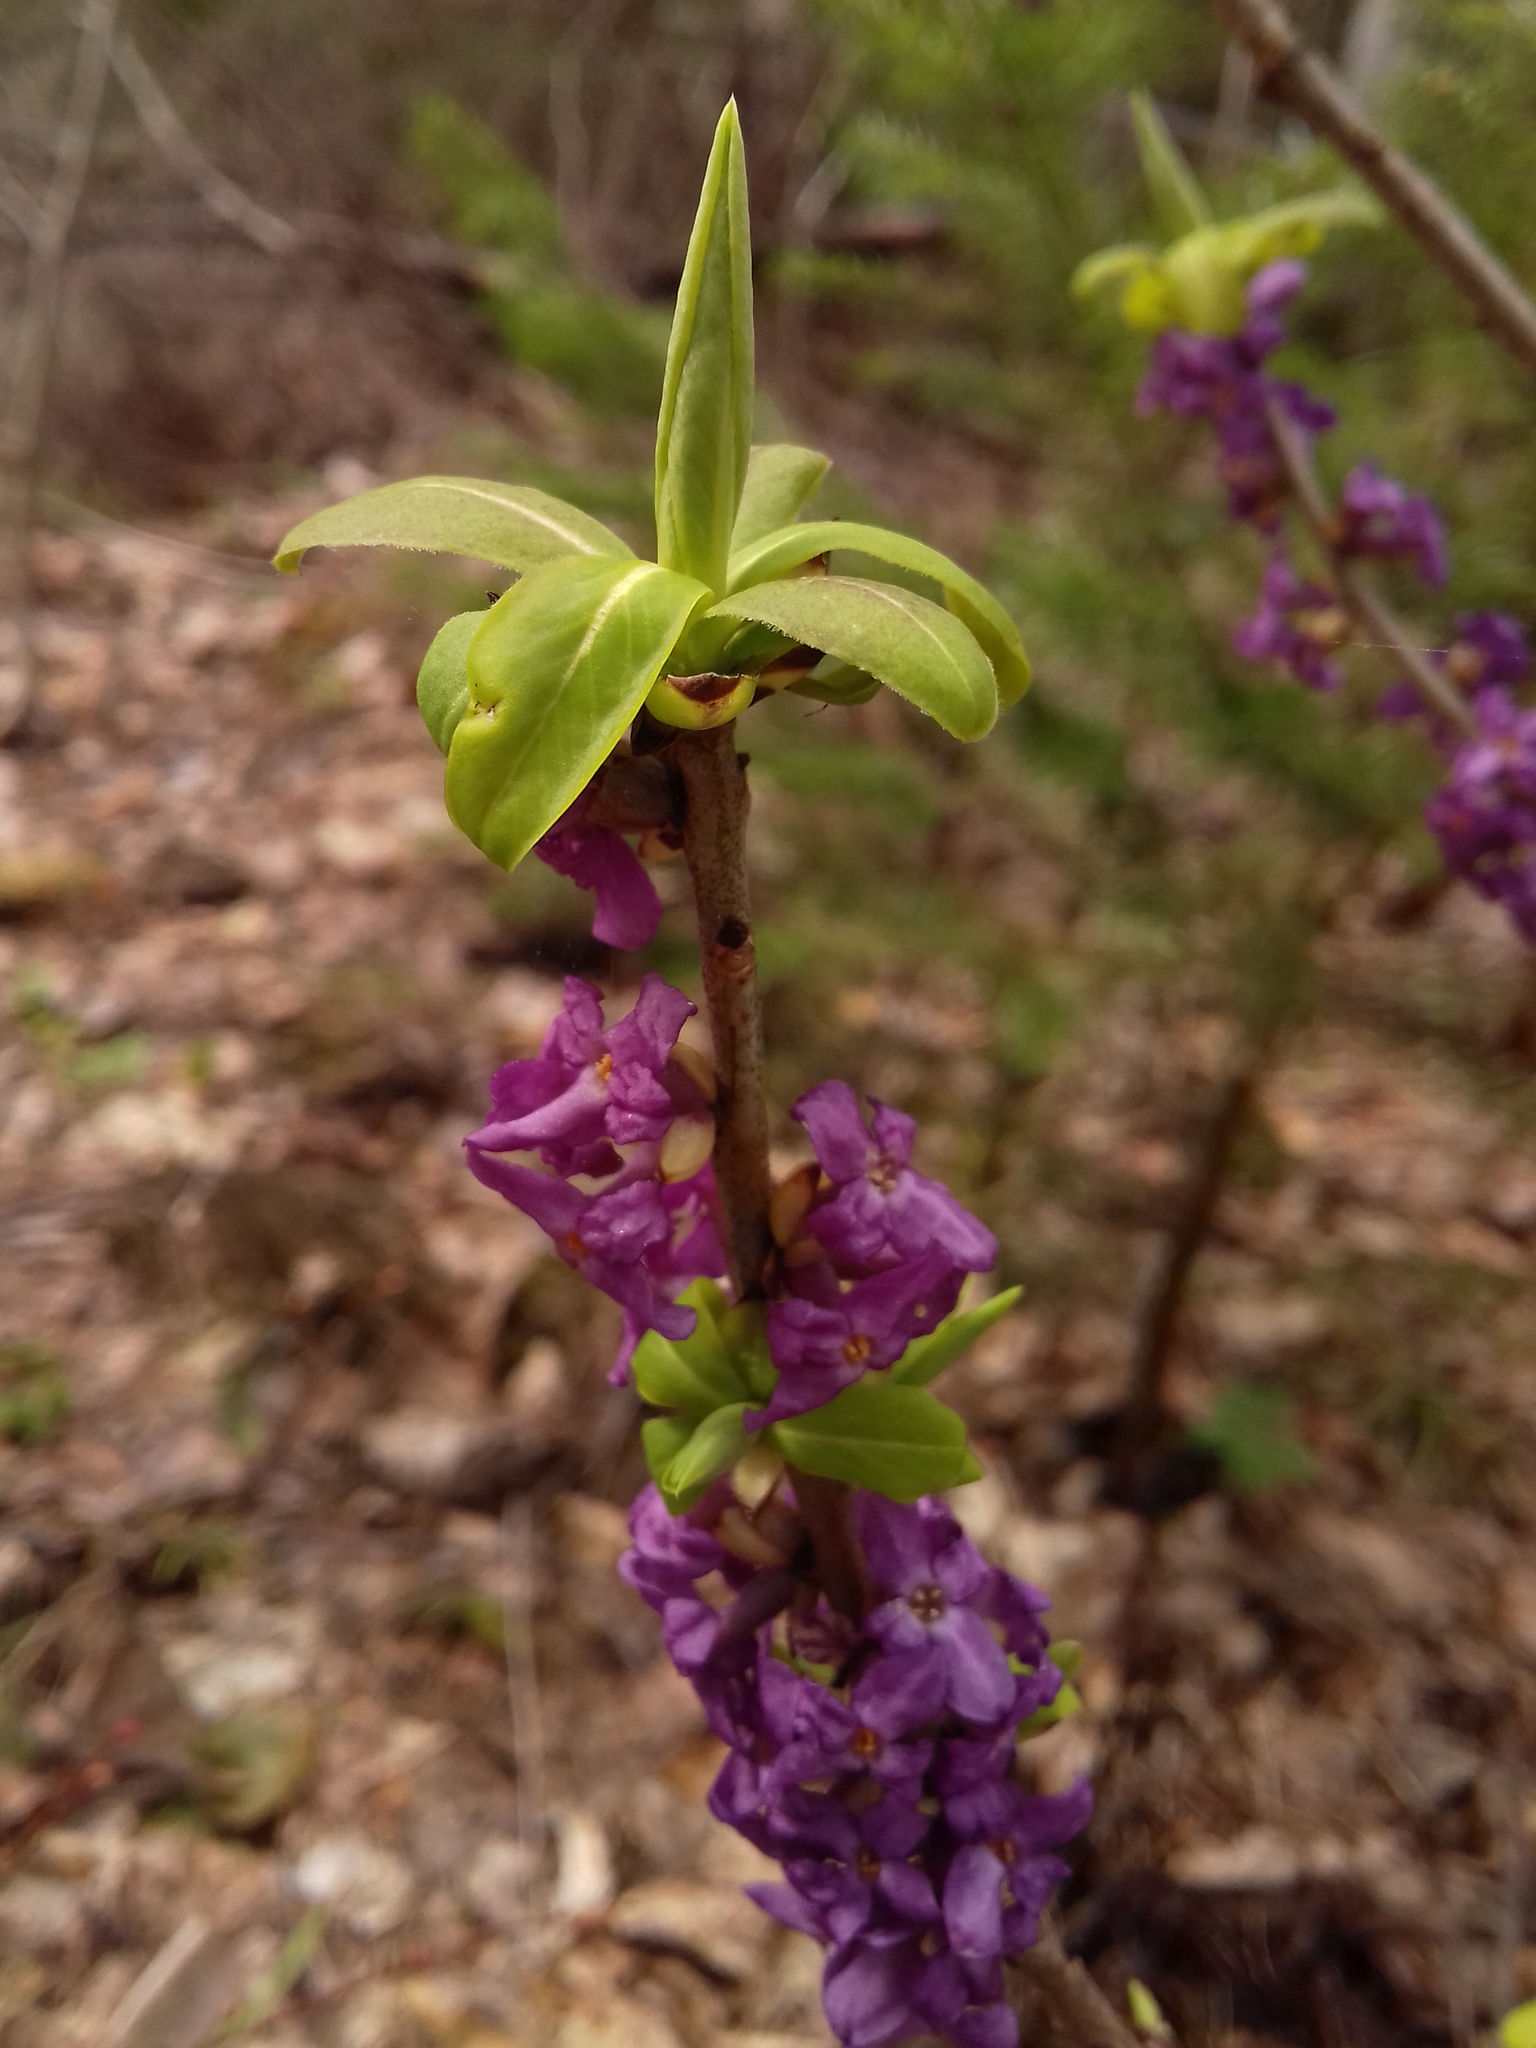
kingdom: Plantae
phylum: Tracheophyta
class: Magnoliopsida
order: Malvales
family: Thymelaeaceae
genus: Daphne
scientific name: Daphne mezereum
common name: Mezereon
